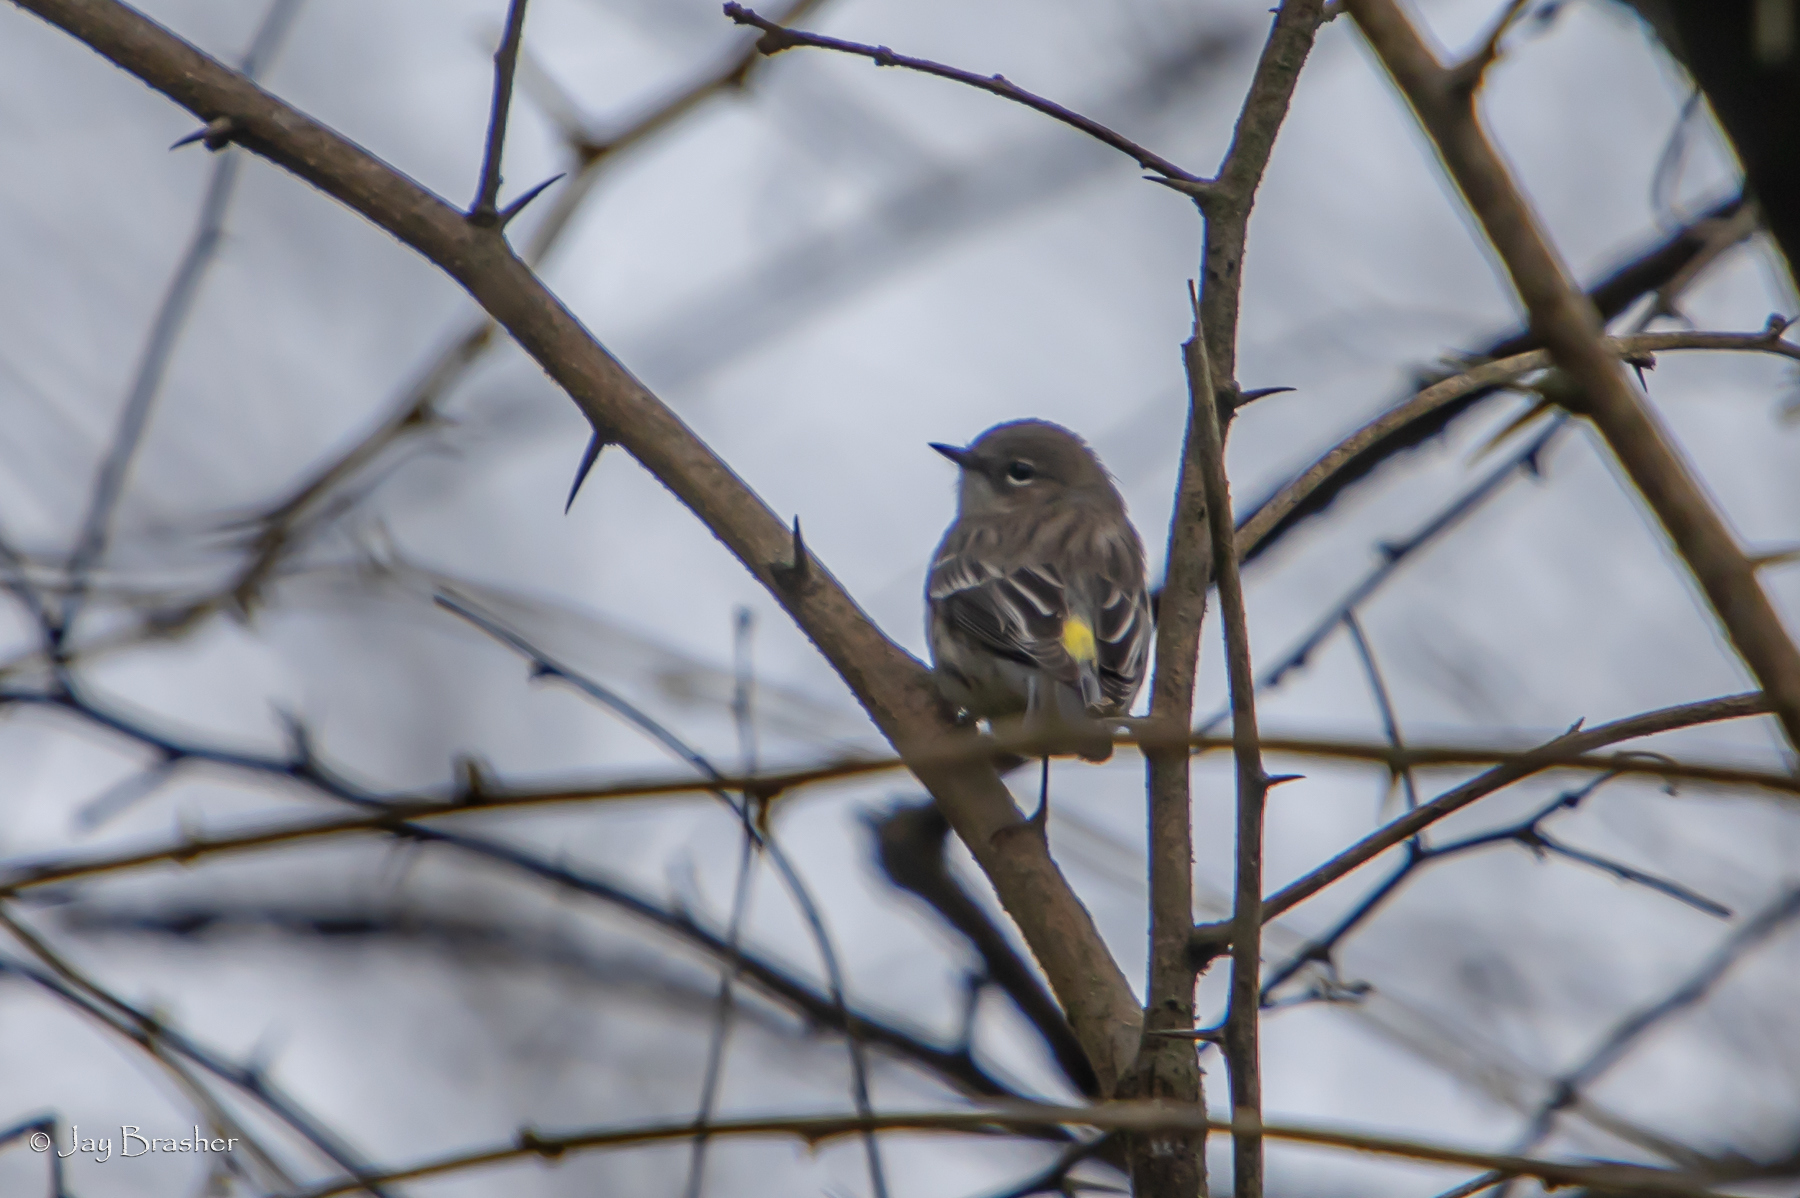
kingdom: Animalia
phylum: Chordata
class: Aves
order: Passeriformes
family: Parulidae
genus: Setophaga
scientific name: Setophaga coronata
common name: Myrtle warbler
